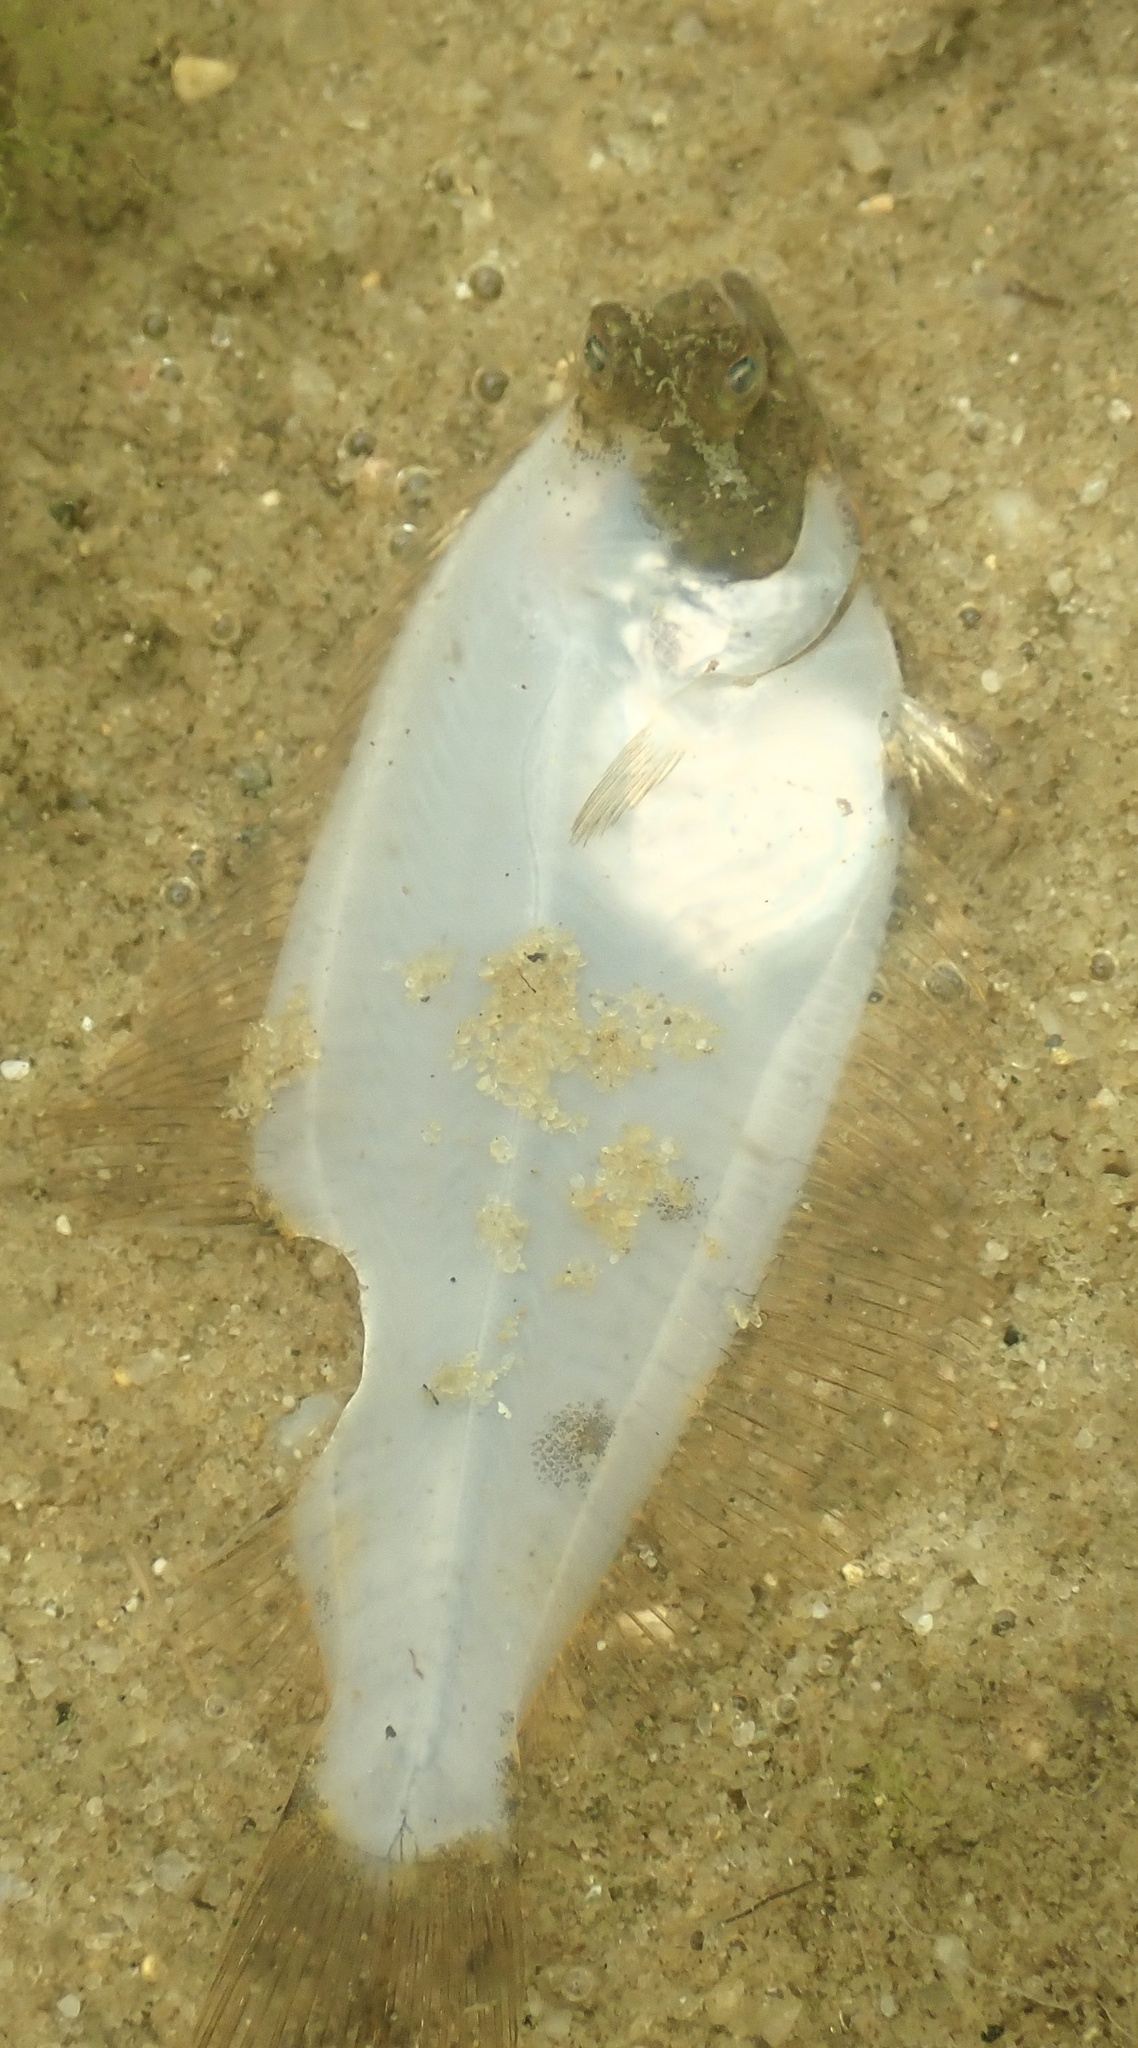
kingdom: Animalia
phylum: Chordata
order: Pleuronectiformes
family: Pleuronectidae
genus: Pseudopleuronectes
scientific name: Pseudopleuronectes americanus
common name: Black backs
